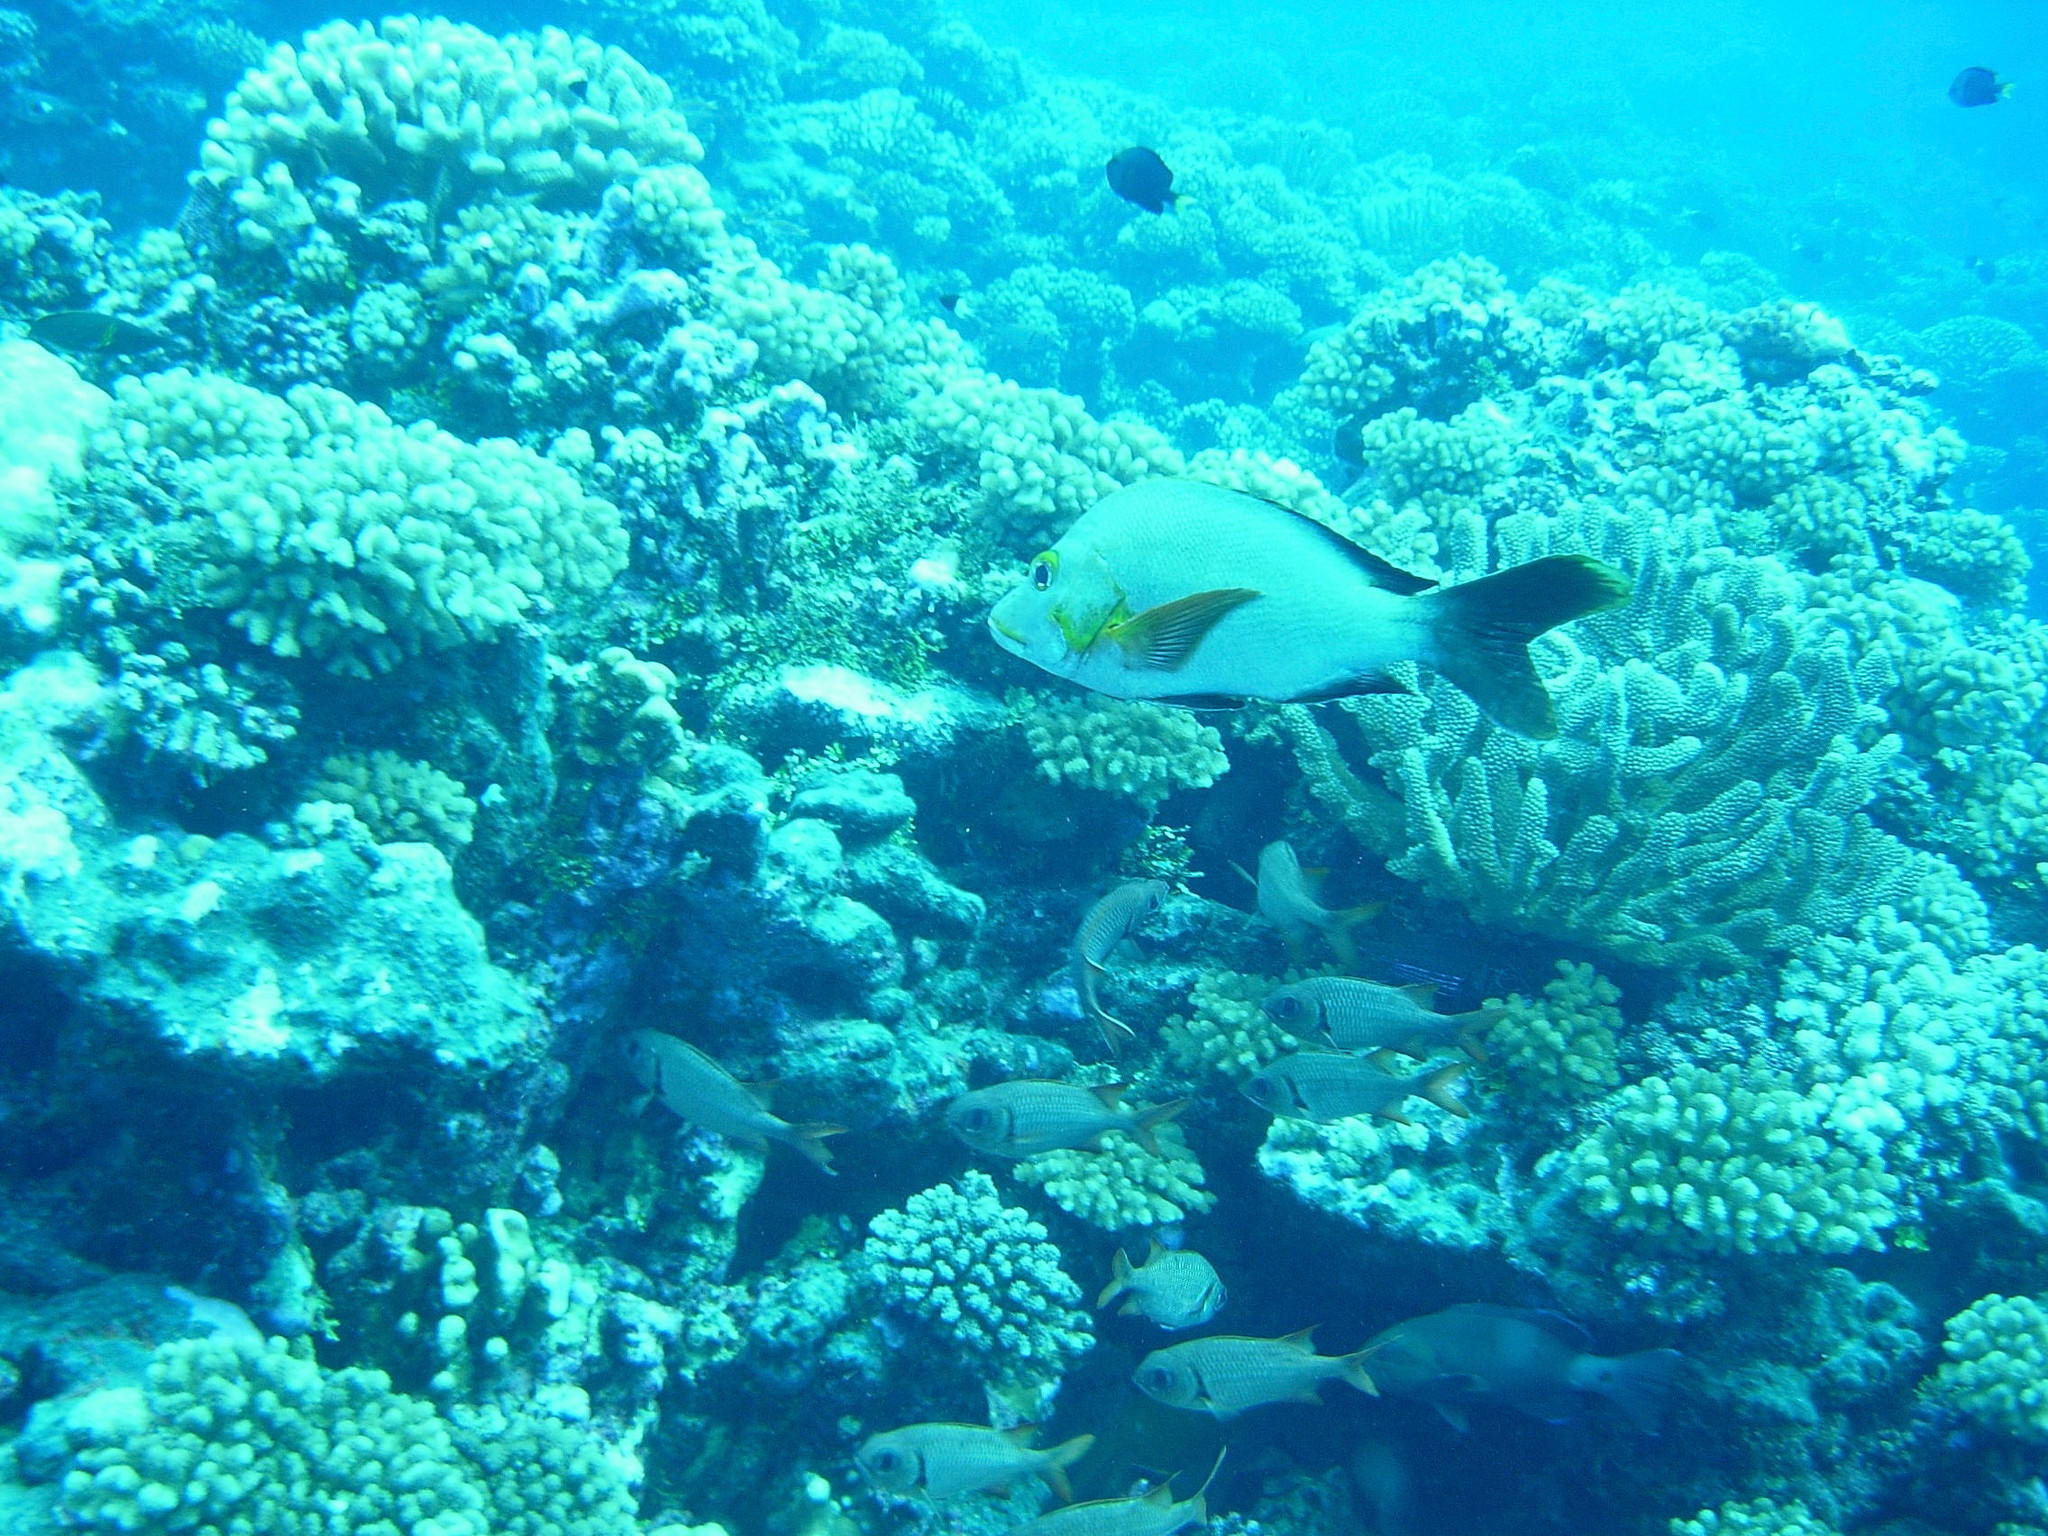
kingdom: Animalia
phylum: Chordata
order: Perciformes
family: Lutjanidae
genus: Lutjanus
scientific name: Lutjanus gibbus
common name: Humpback snapper
